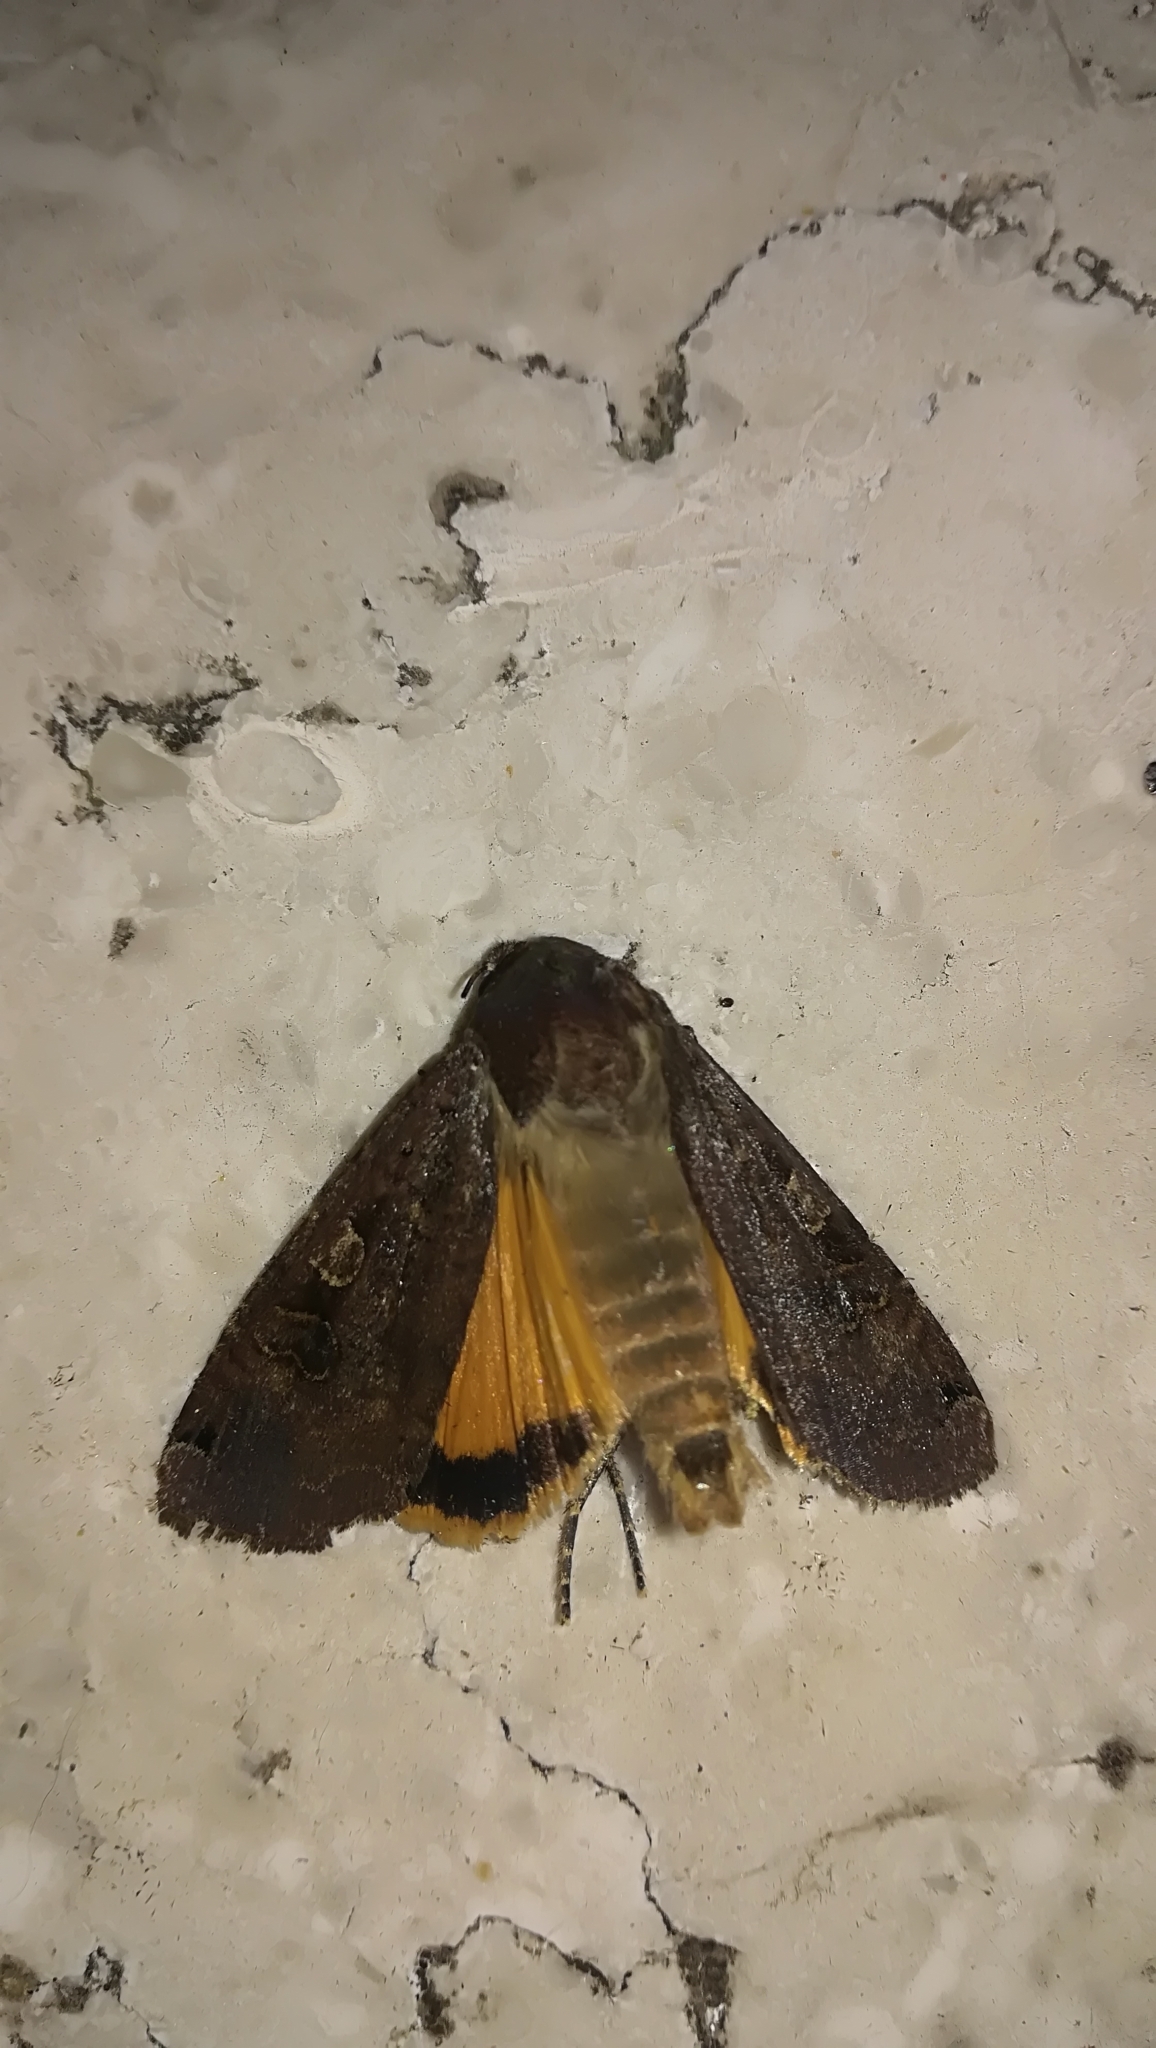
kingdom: Animalia
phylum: Arthropoda
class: Insecta
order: Lepidoptera
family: Noctuidae
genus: Noctua
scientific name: Noctua pronuba
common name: Large yellow underwing
